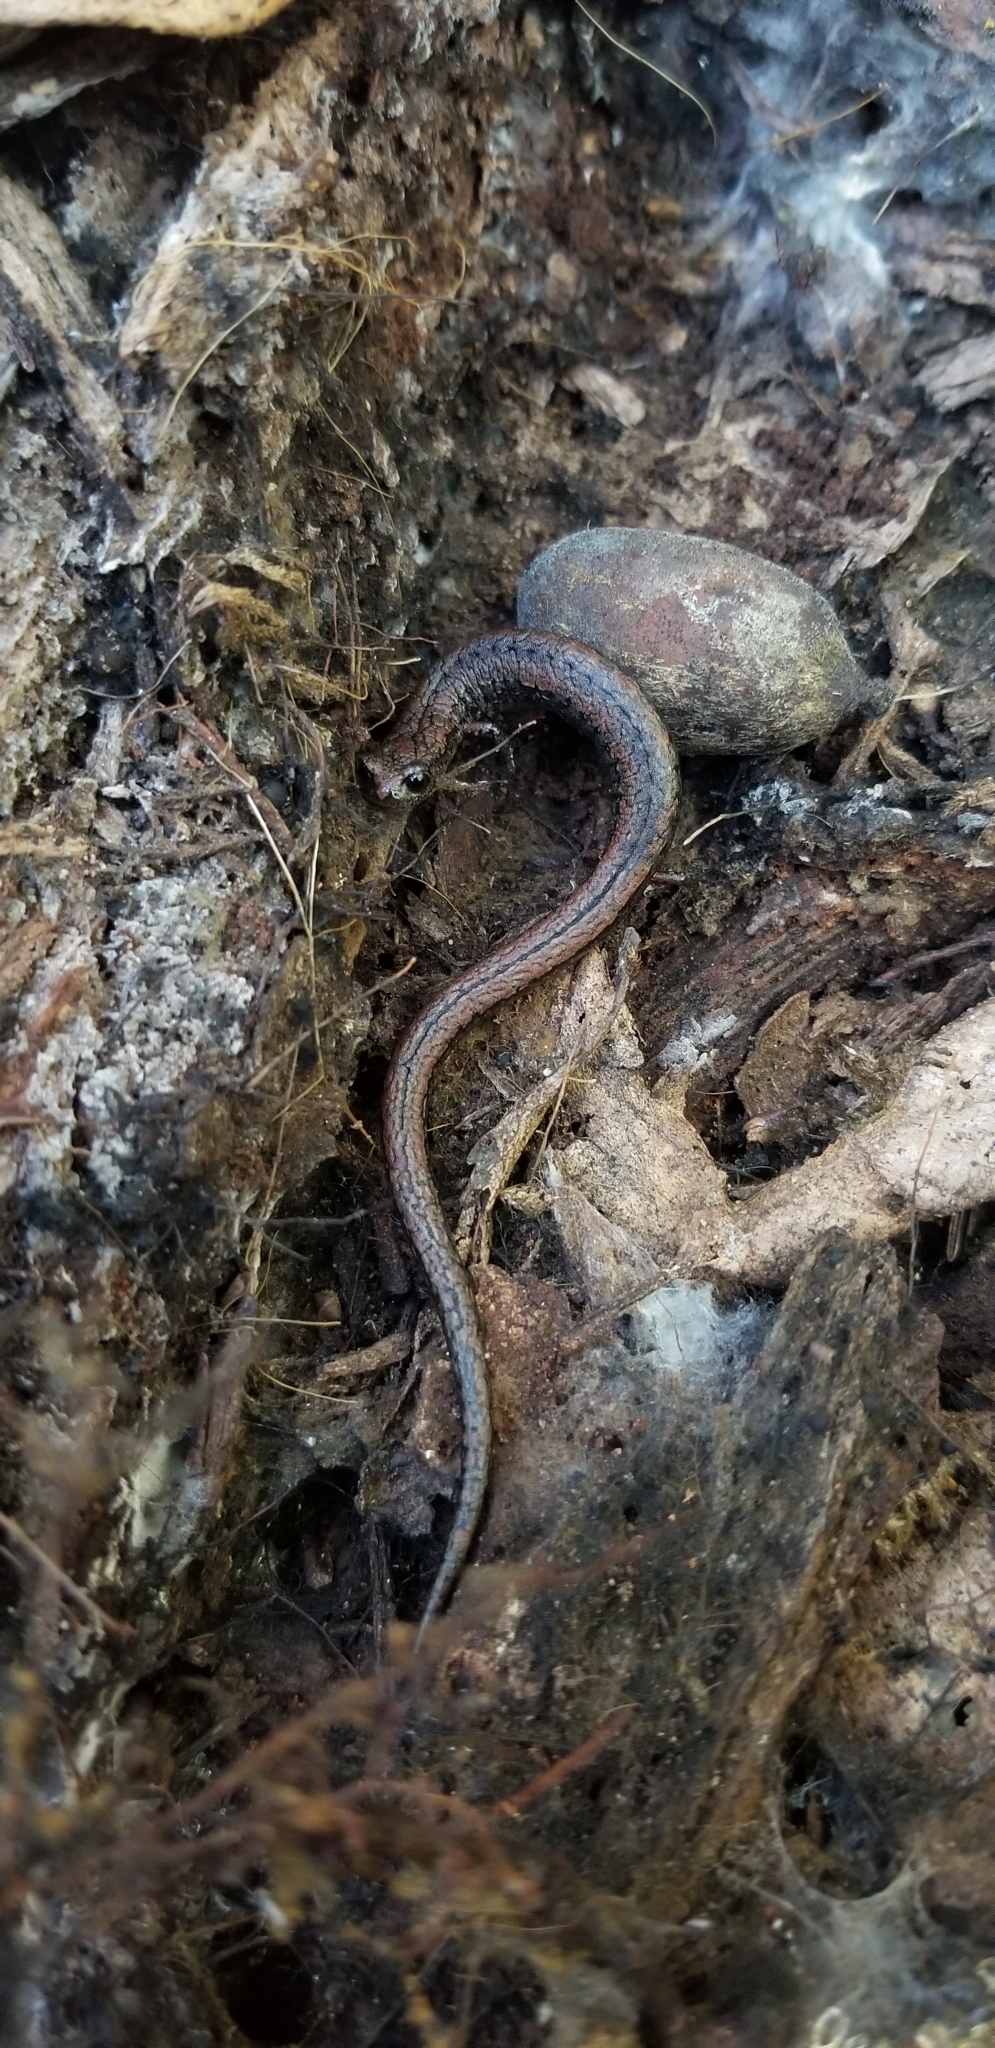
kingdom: Animalia
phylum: Chordata
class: Amphibia
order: Caudata
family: Plethodontidae
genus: Batrachoseps
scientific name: Batrachoseps attenuatus
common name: California slender salamander
